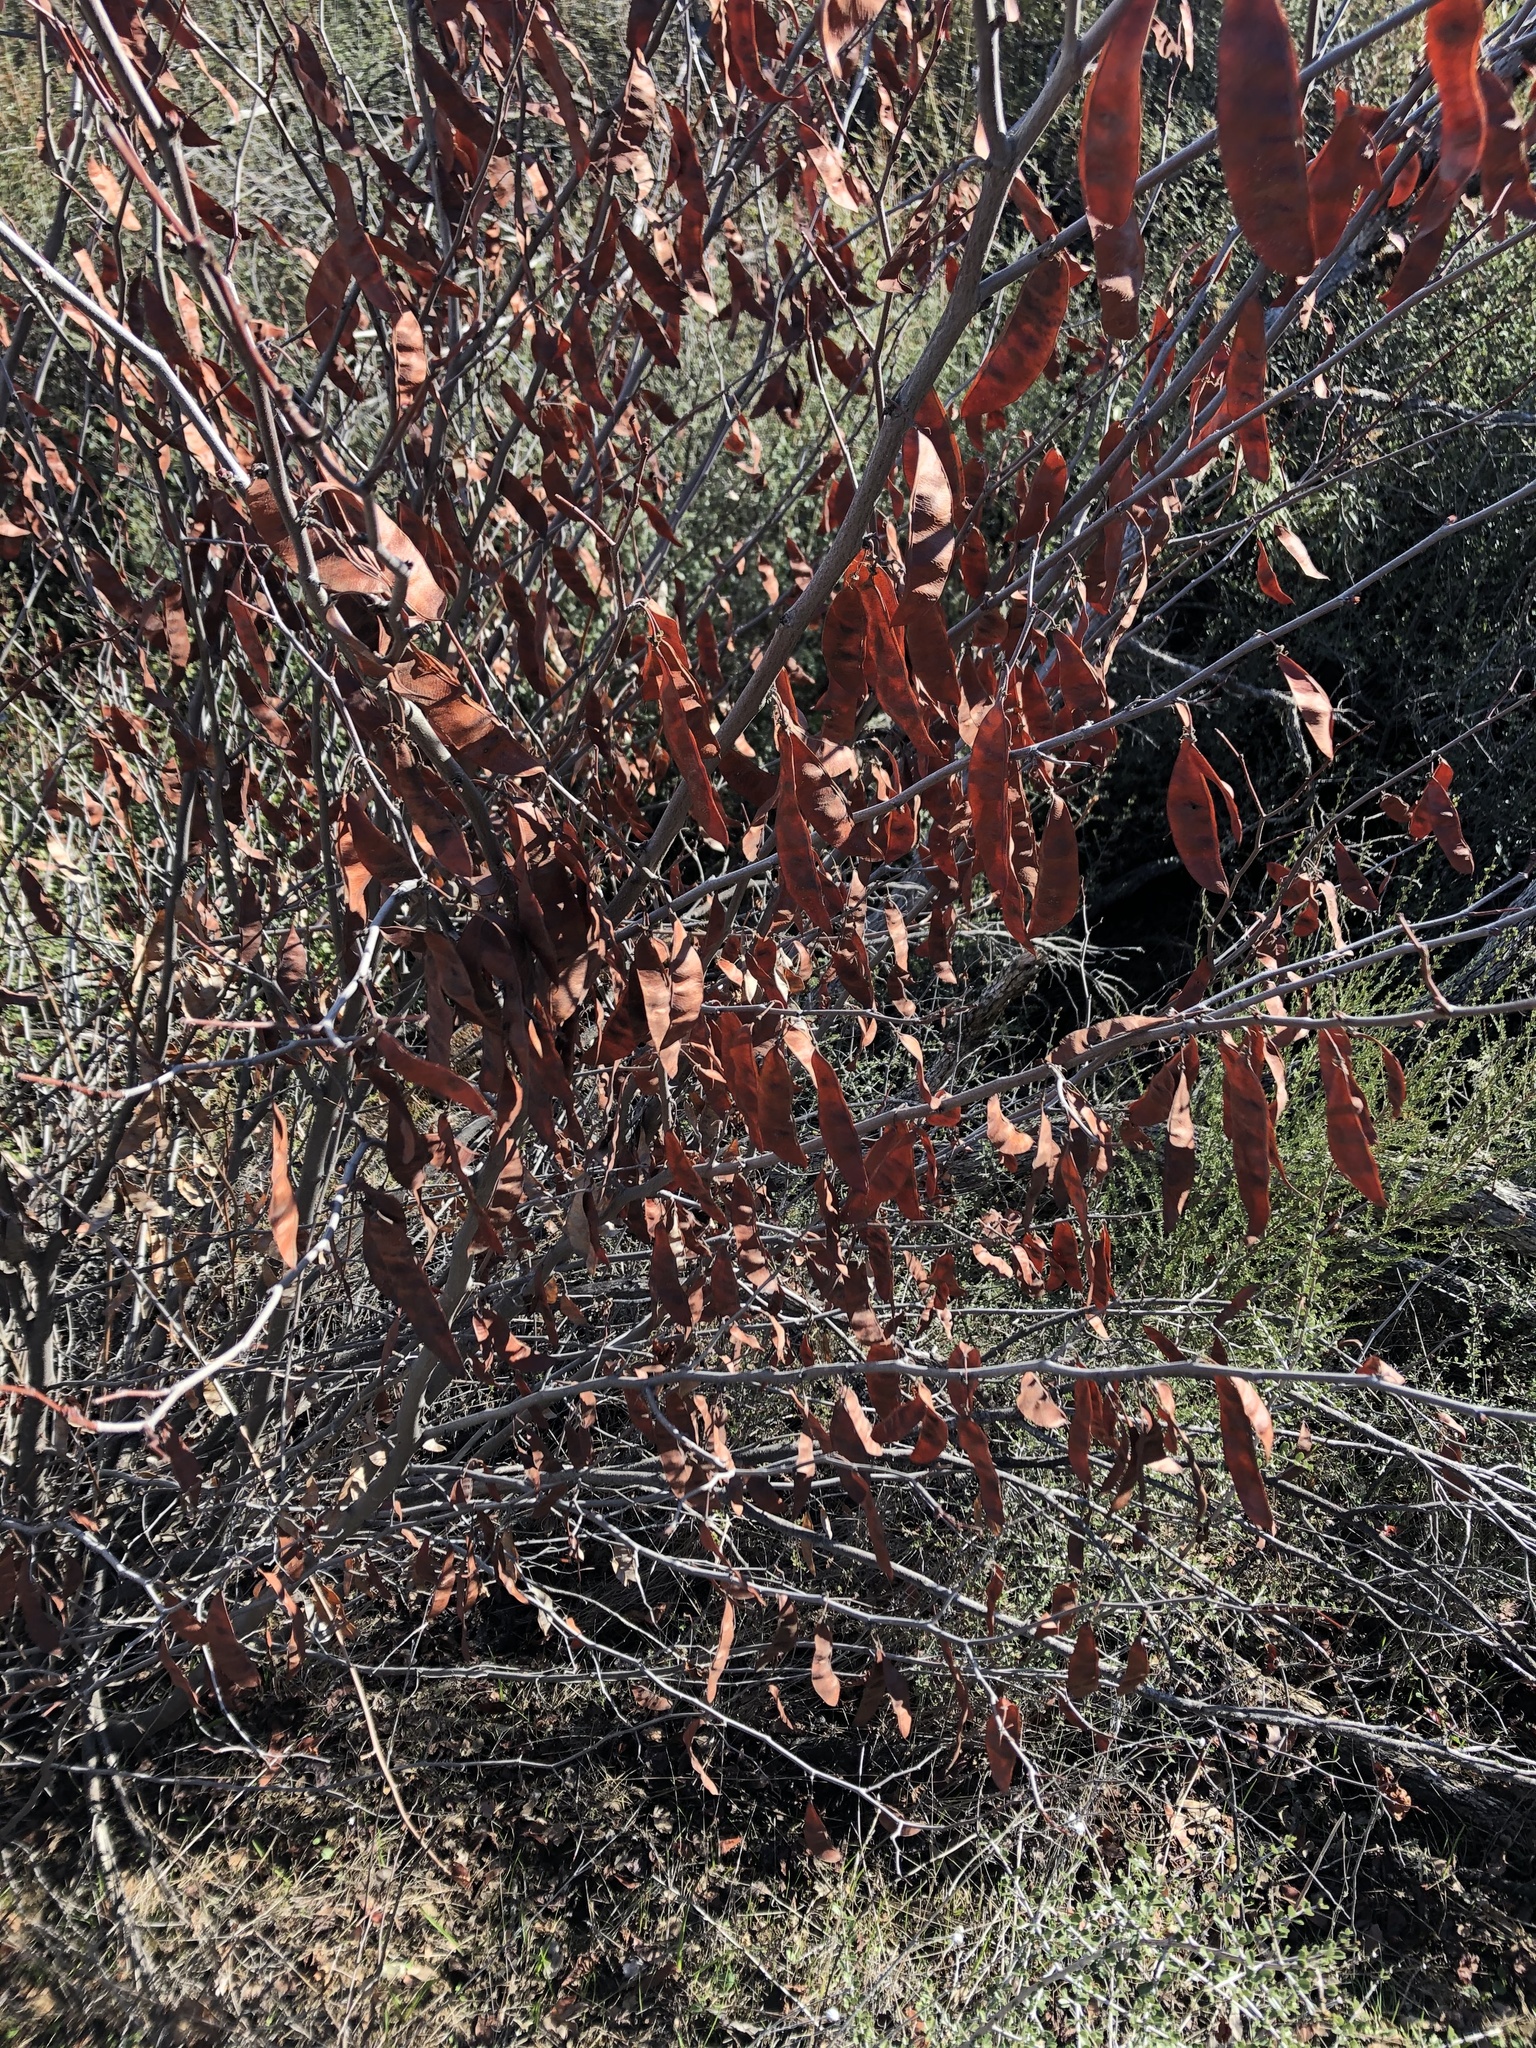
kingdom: Plantae
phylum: Tracheophyta
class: Magnoliopsida
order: Fabales
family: Fabaceae
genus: Cercis
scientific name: Cercis occidentalis
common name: California redbud
